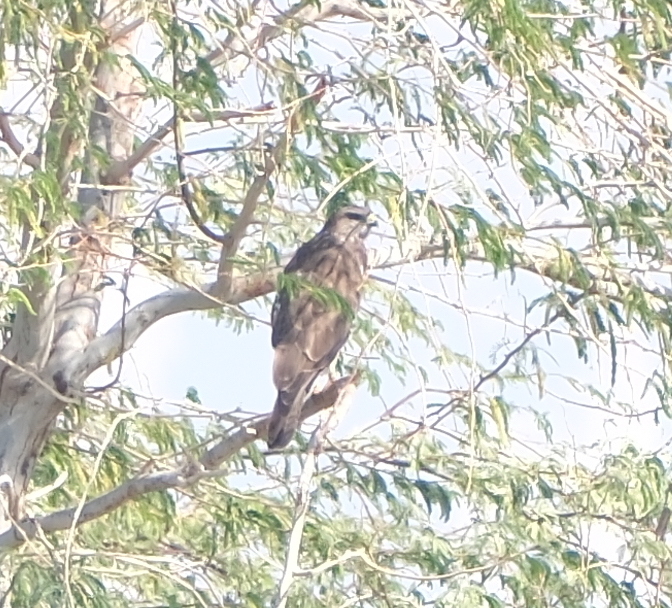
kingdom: Animalia
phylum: Chordata
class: Aves
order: Accipitriformes
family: Accipitridae
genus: Buteo
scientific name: Buteo buteo
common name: Common buzzard
